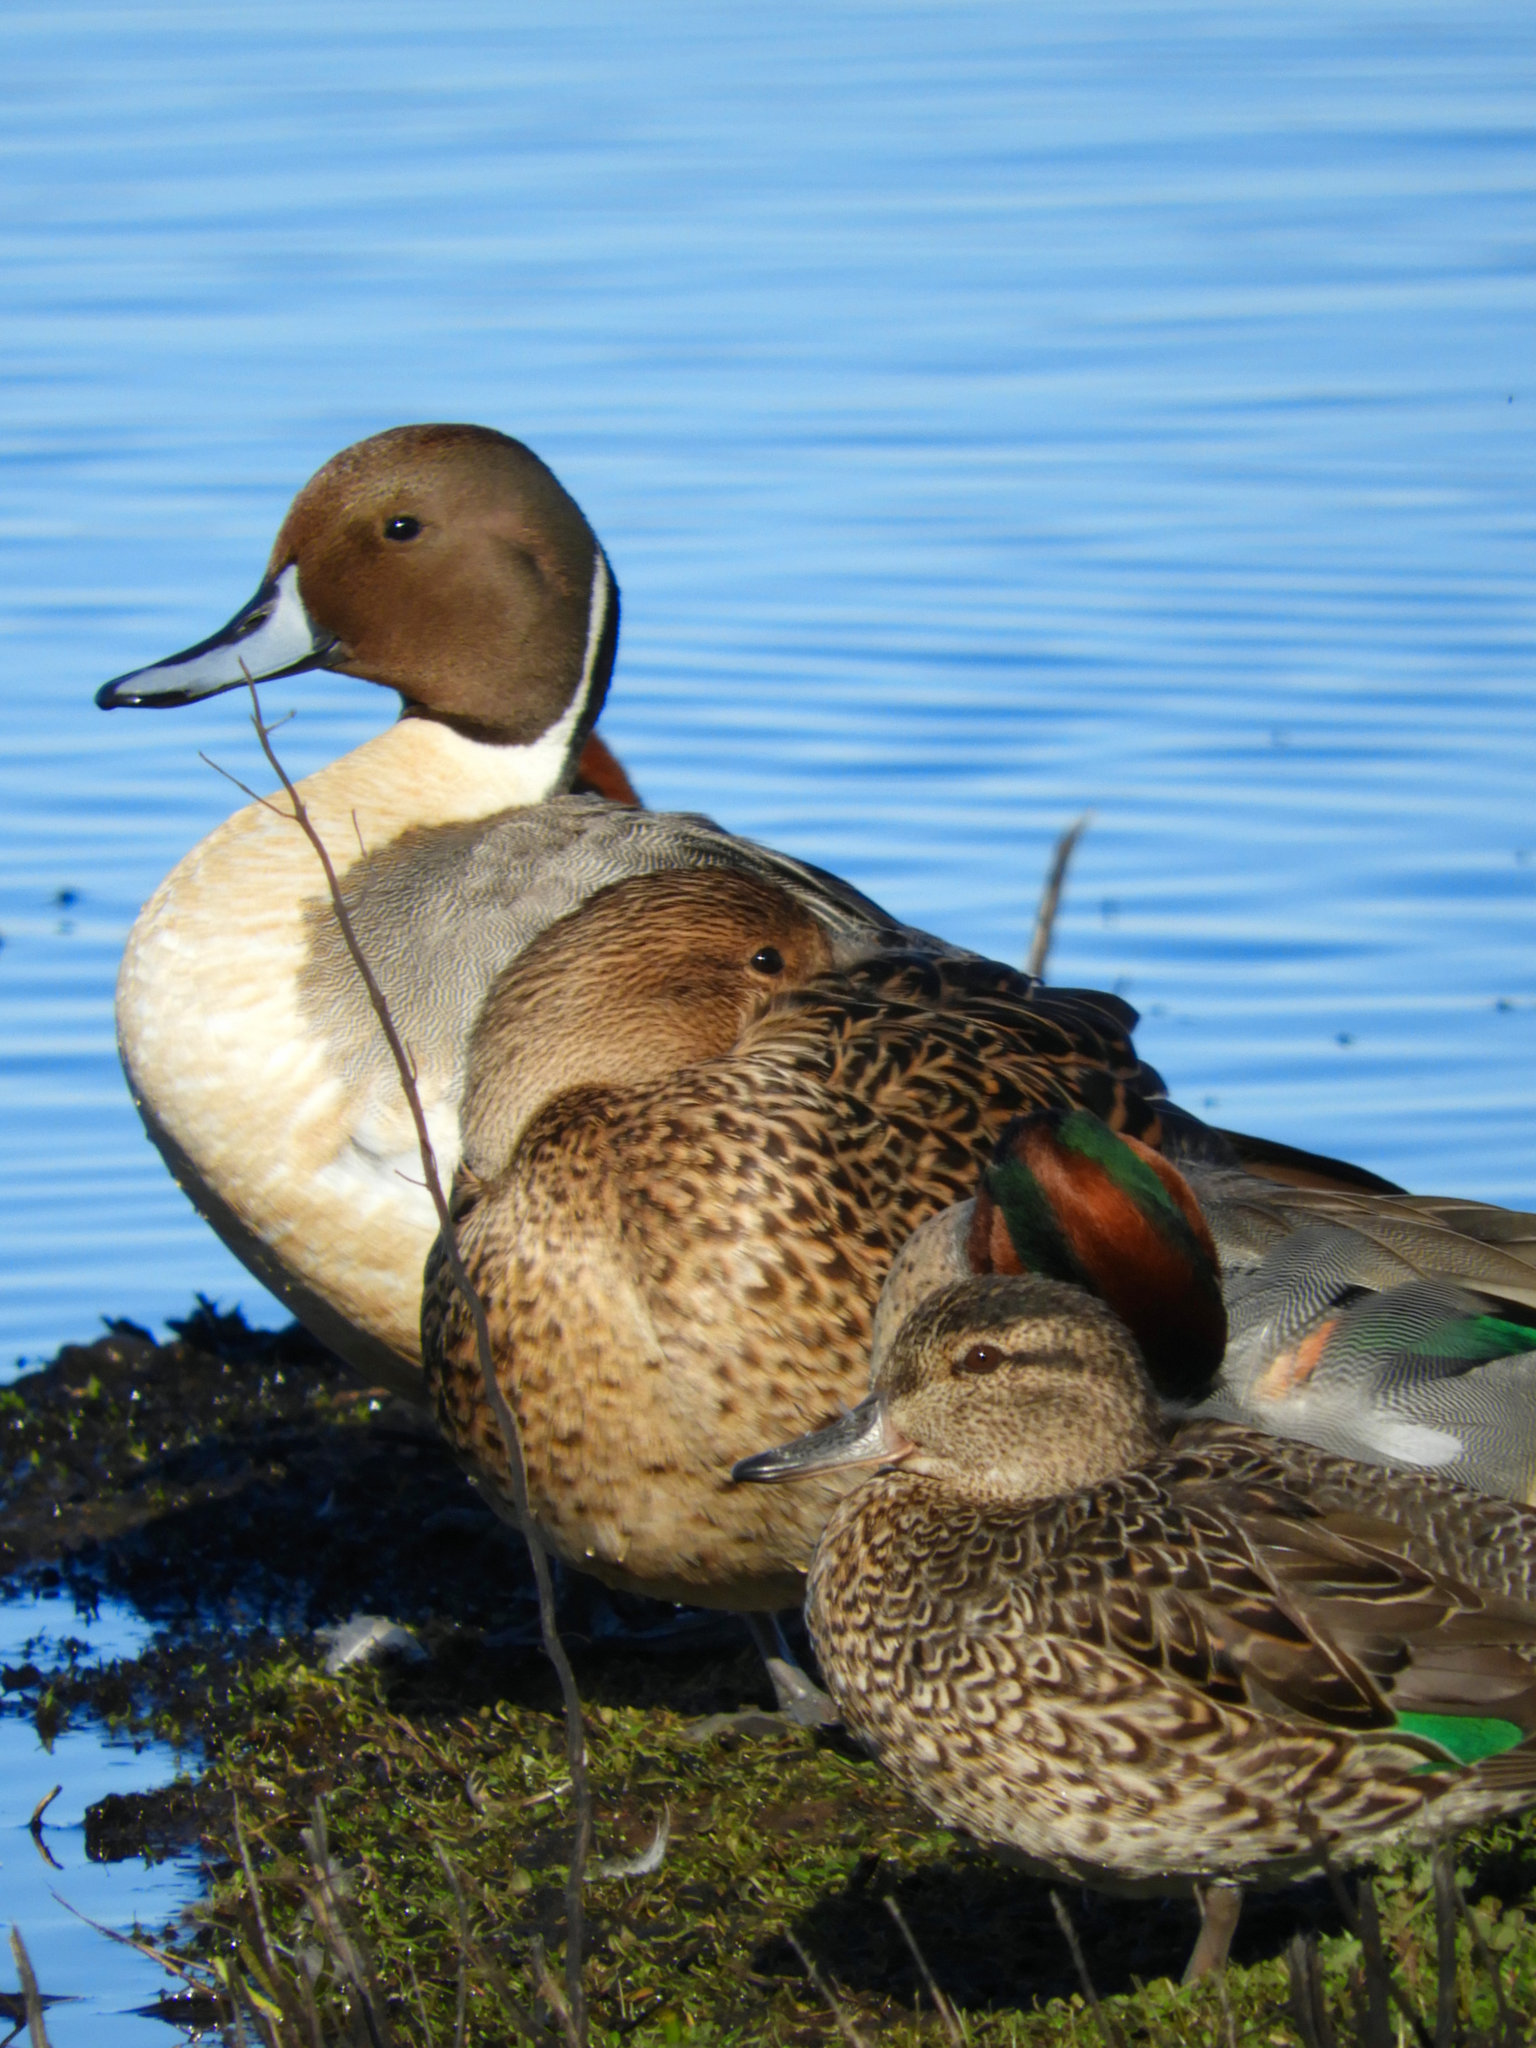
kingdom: Animalia
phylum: Chordata
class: Aves
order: Anseriformes
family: Anatidae
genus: Anas
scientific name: Anas acuta
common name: Northern pintail
